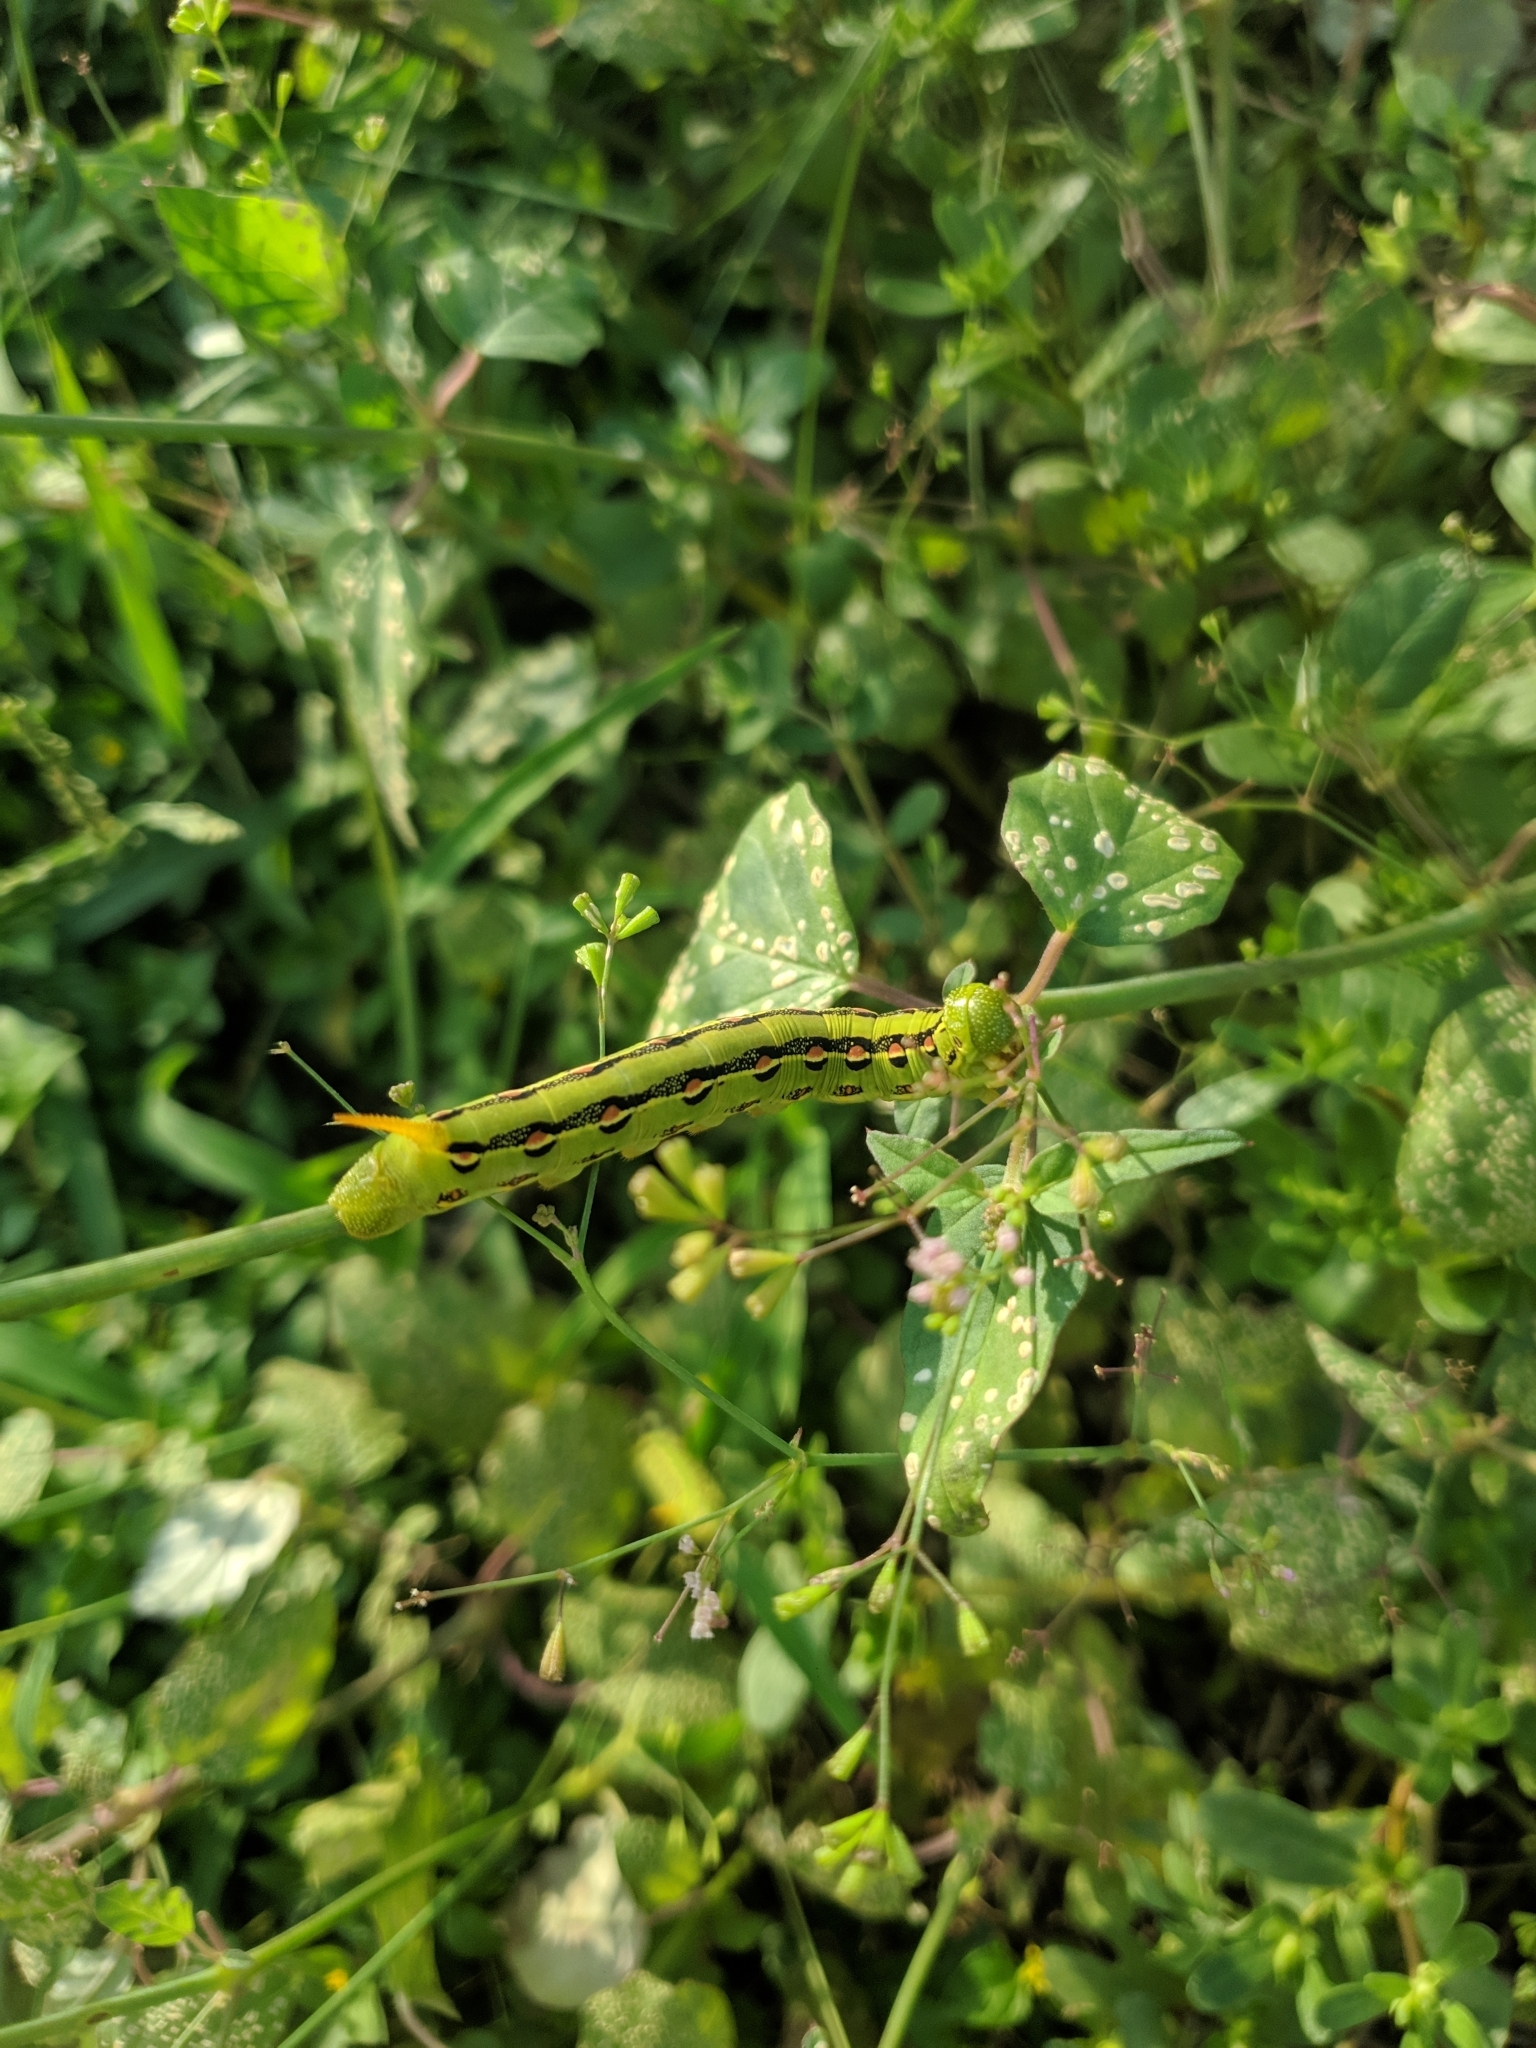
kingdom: Animalia
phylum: Arthropoda
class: Insecta
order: Lepidoptera
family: Sphingidae
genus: Hyles
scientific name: Hyles lineata
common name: White-lined sphinx
